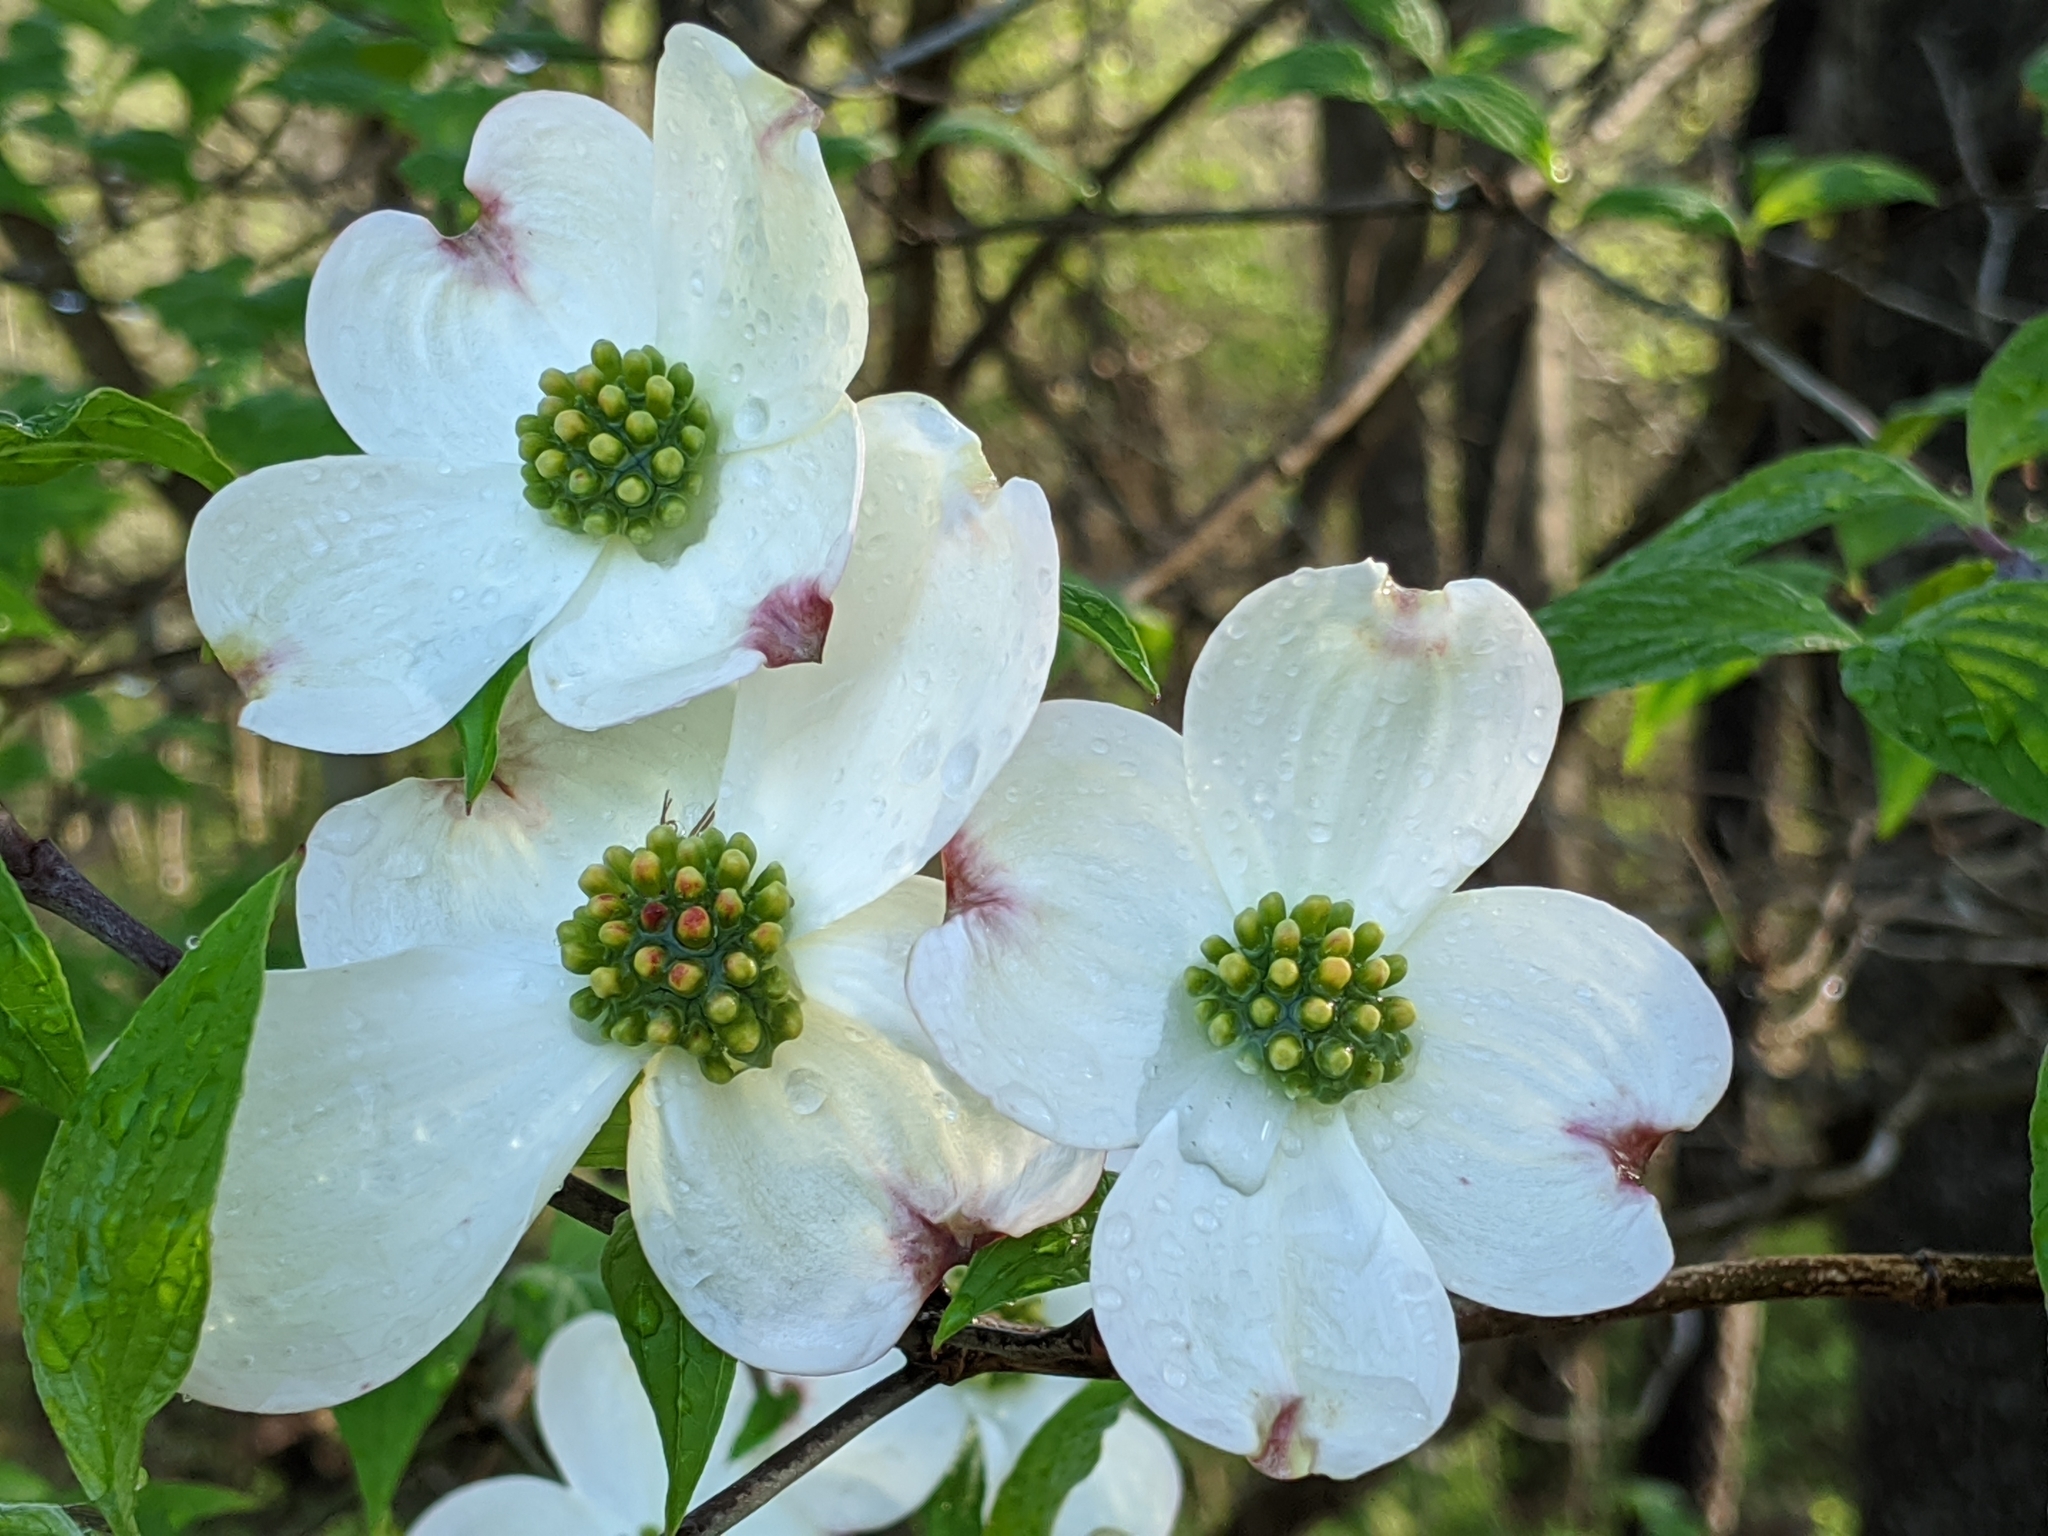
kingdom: Plantae
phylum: Tracheophyta
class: Magnoliopsida
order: Cornales
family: Cornaceae
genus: Cornus
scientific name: Cornus florida
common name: Flowering dogwood
